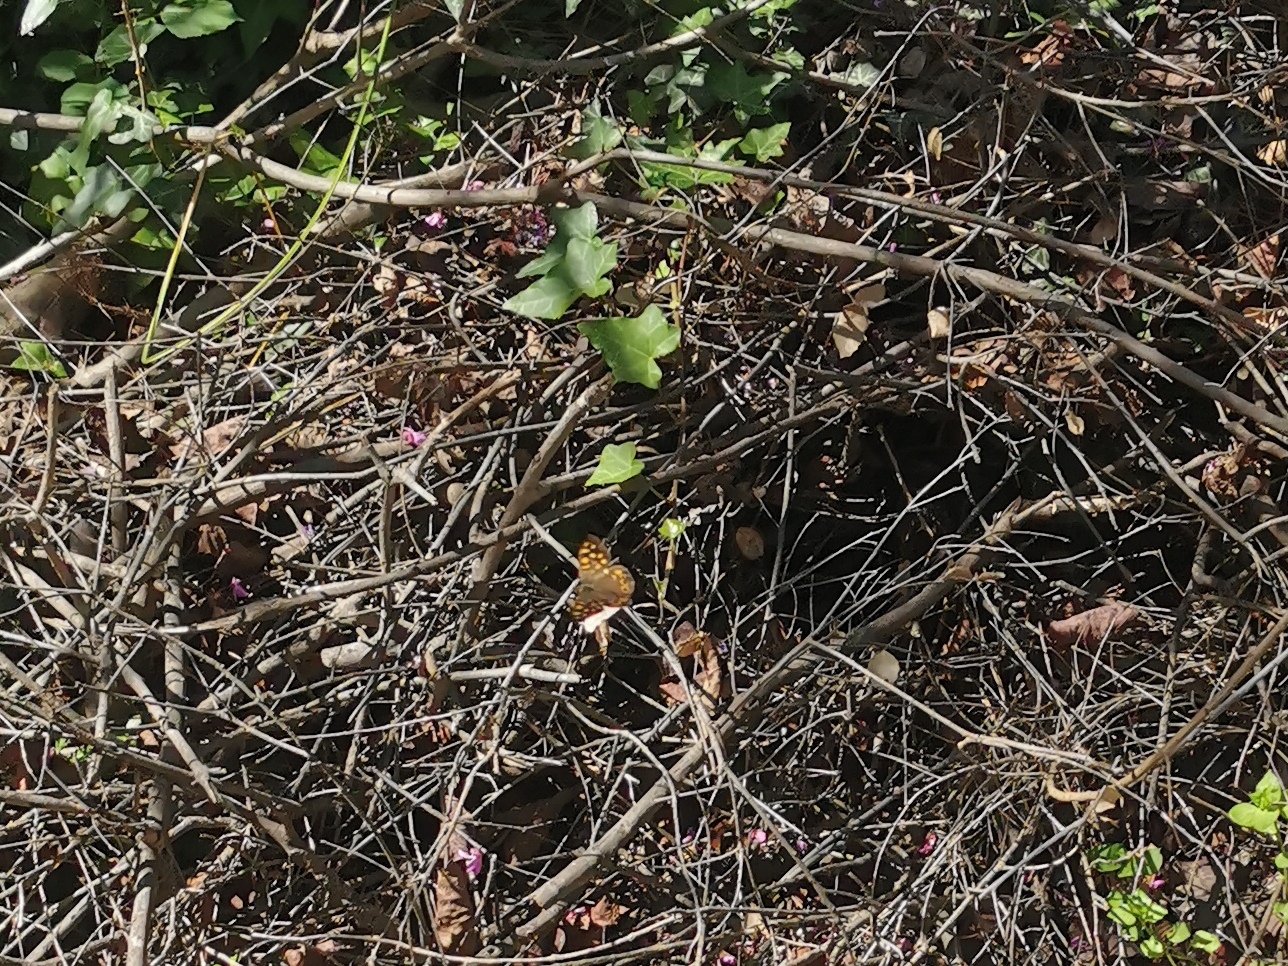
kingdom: Animalia
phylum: Arthropoda
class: Insecta
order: Lepidoptera
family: Nymphalidae
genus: Pararge
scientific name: Pararge aegeria
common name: Speckled wood
